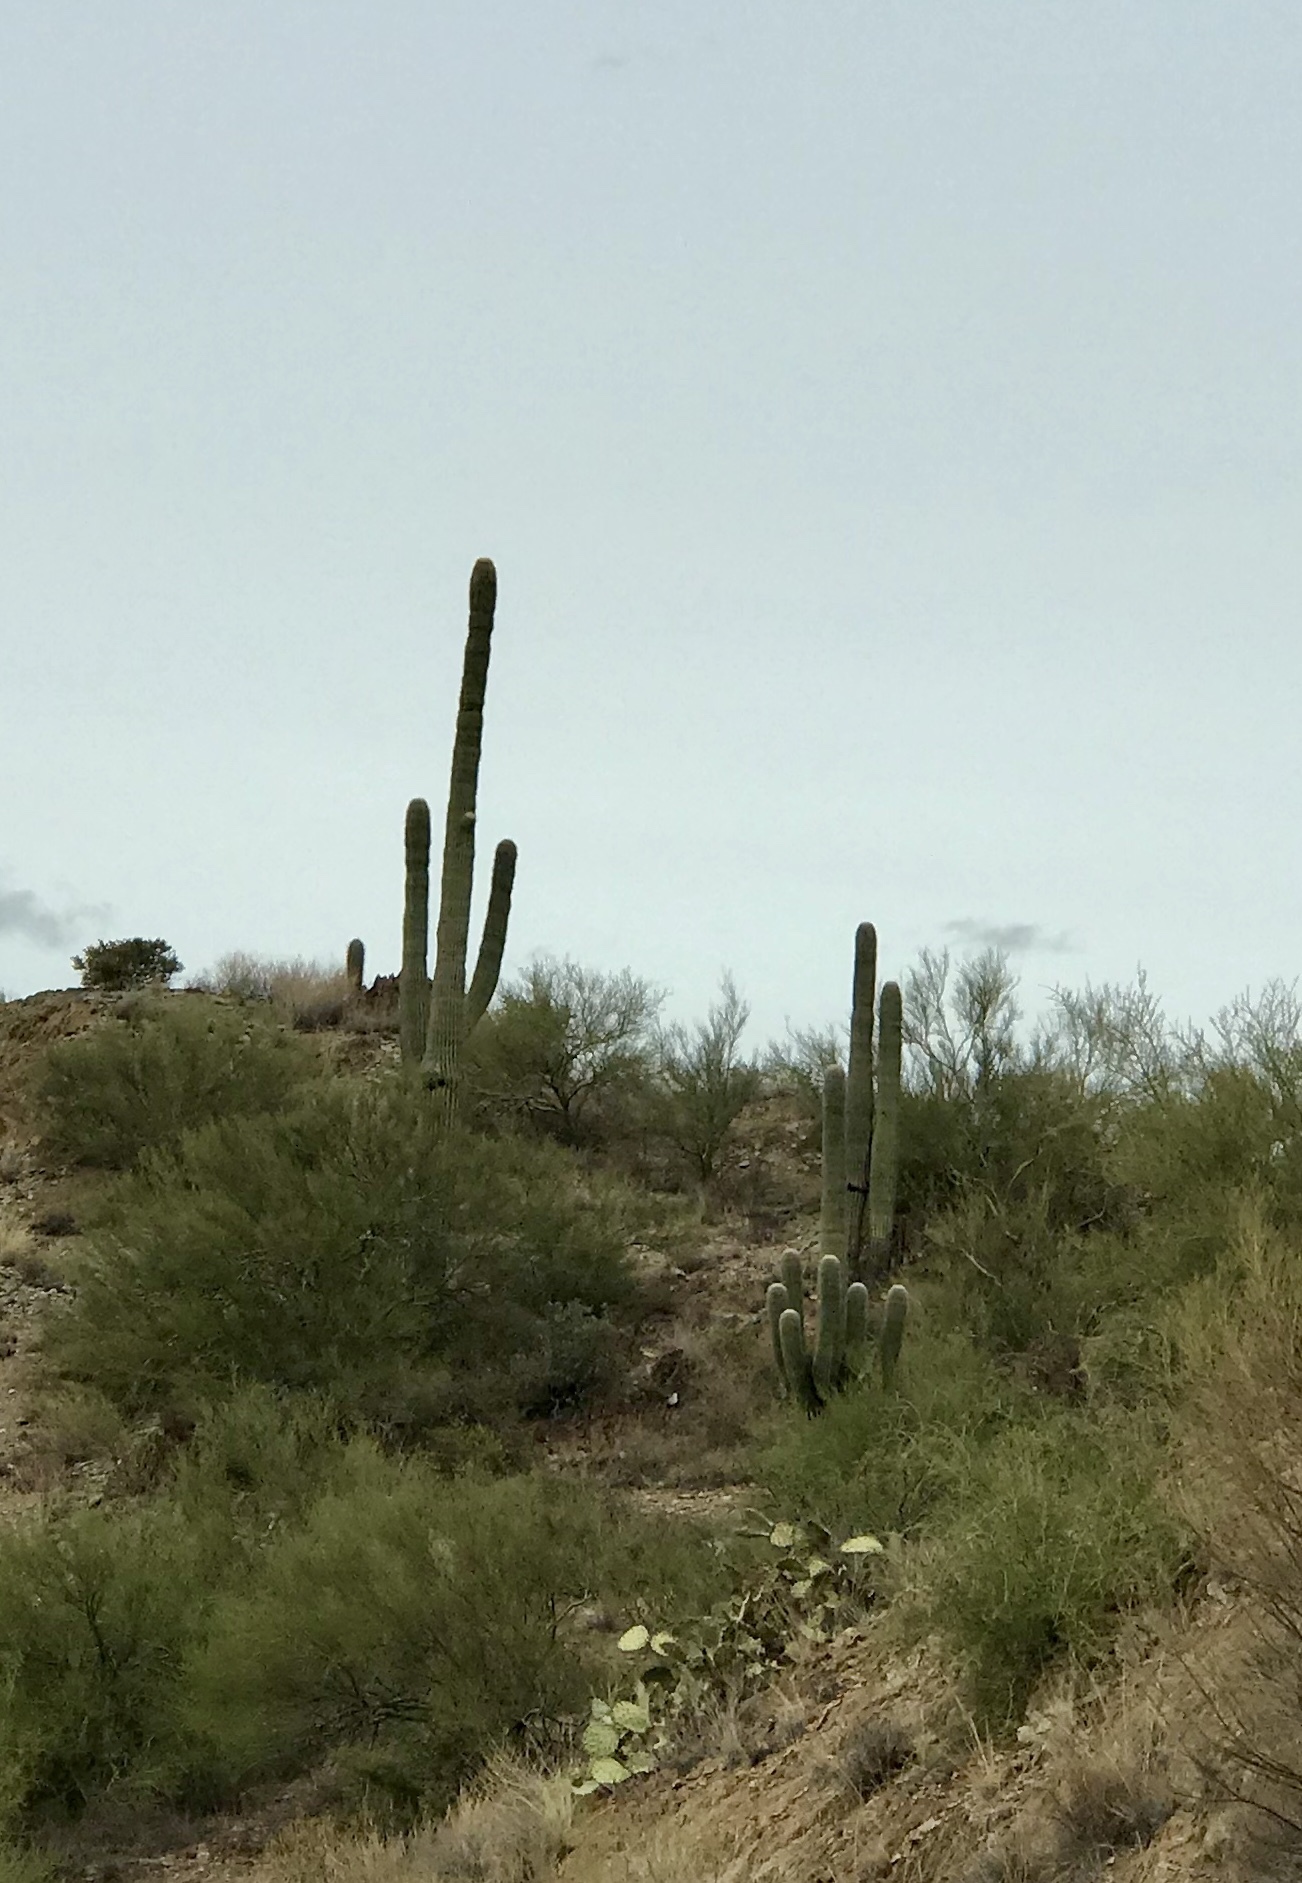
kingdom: Plantae
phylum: Tracheophyta
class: Magnoliopsida
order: Caryophyllales
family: Cactaceae
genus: Carnegiea
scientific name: Carnegiea gigantea
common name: Saguaro
